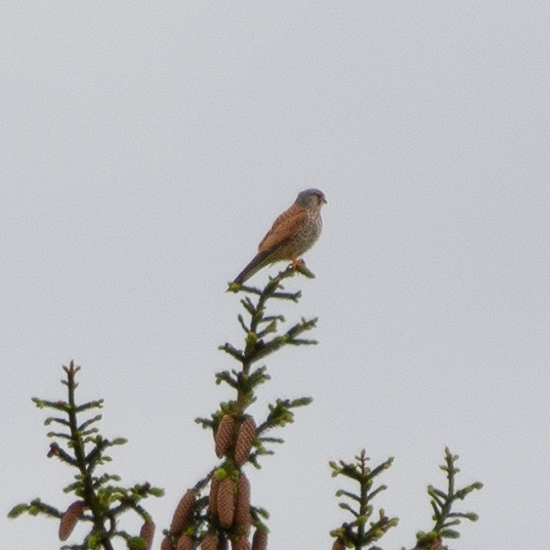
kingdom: Animalia
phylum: Chordata
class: Aves
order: Falconiformes
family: Falconidae
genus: Falco
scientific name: Falco tinnunculus
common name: Common kestrel
